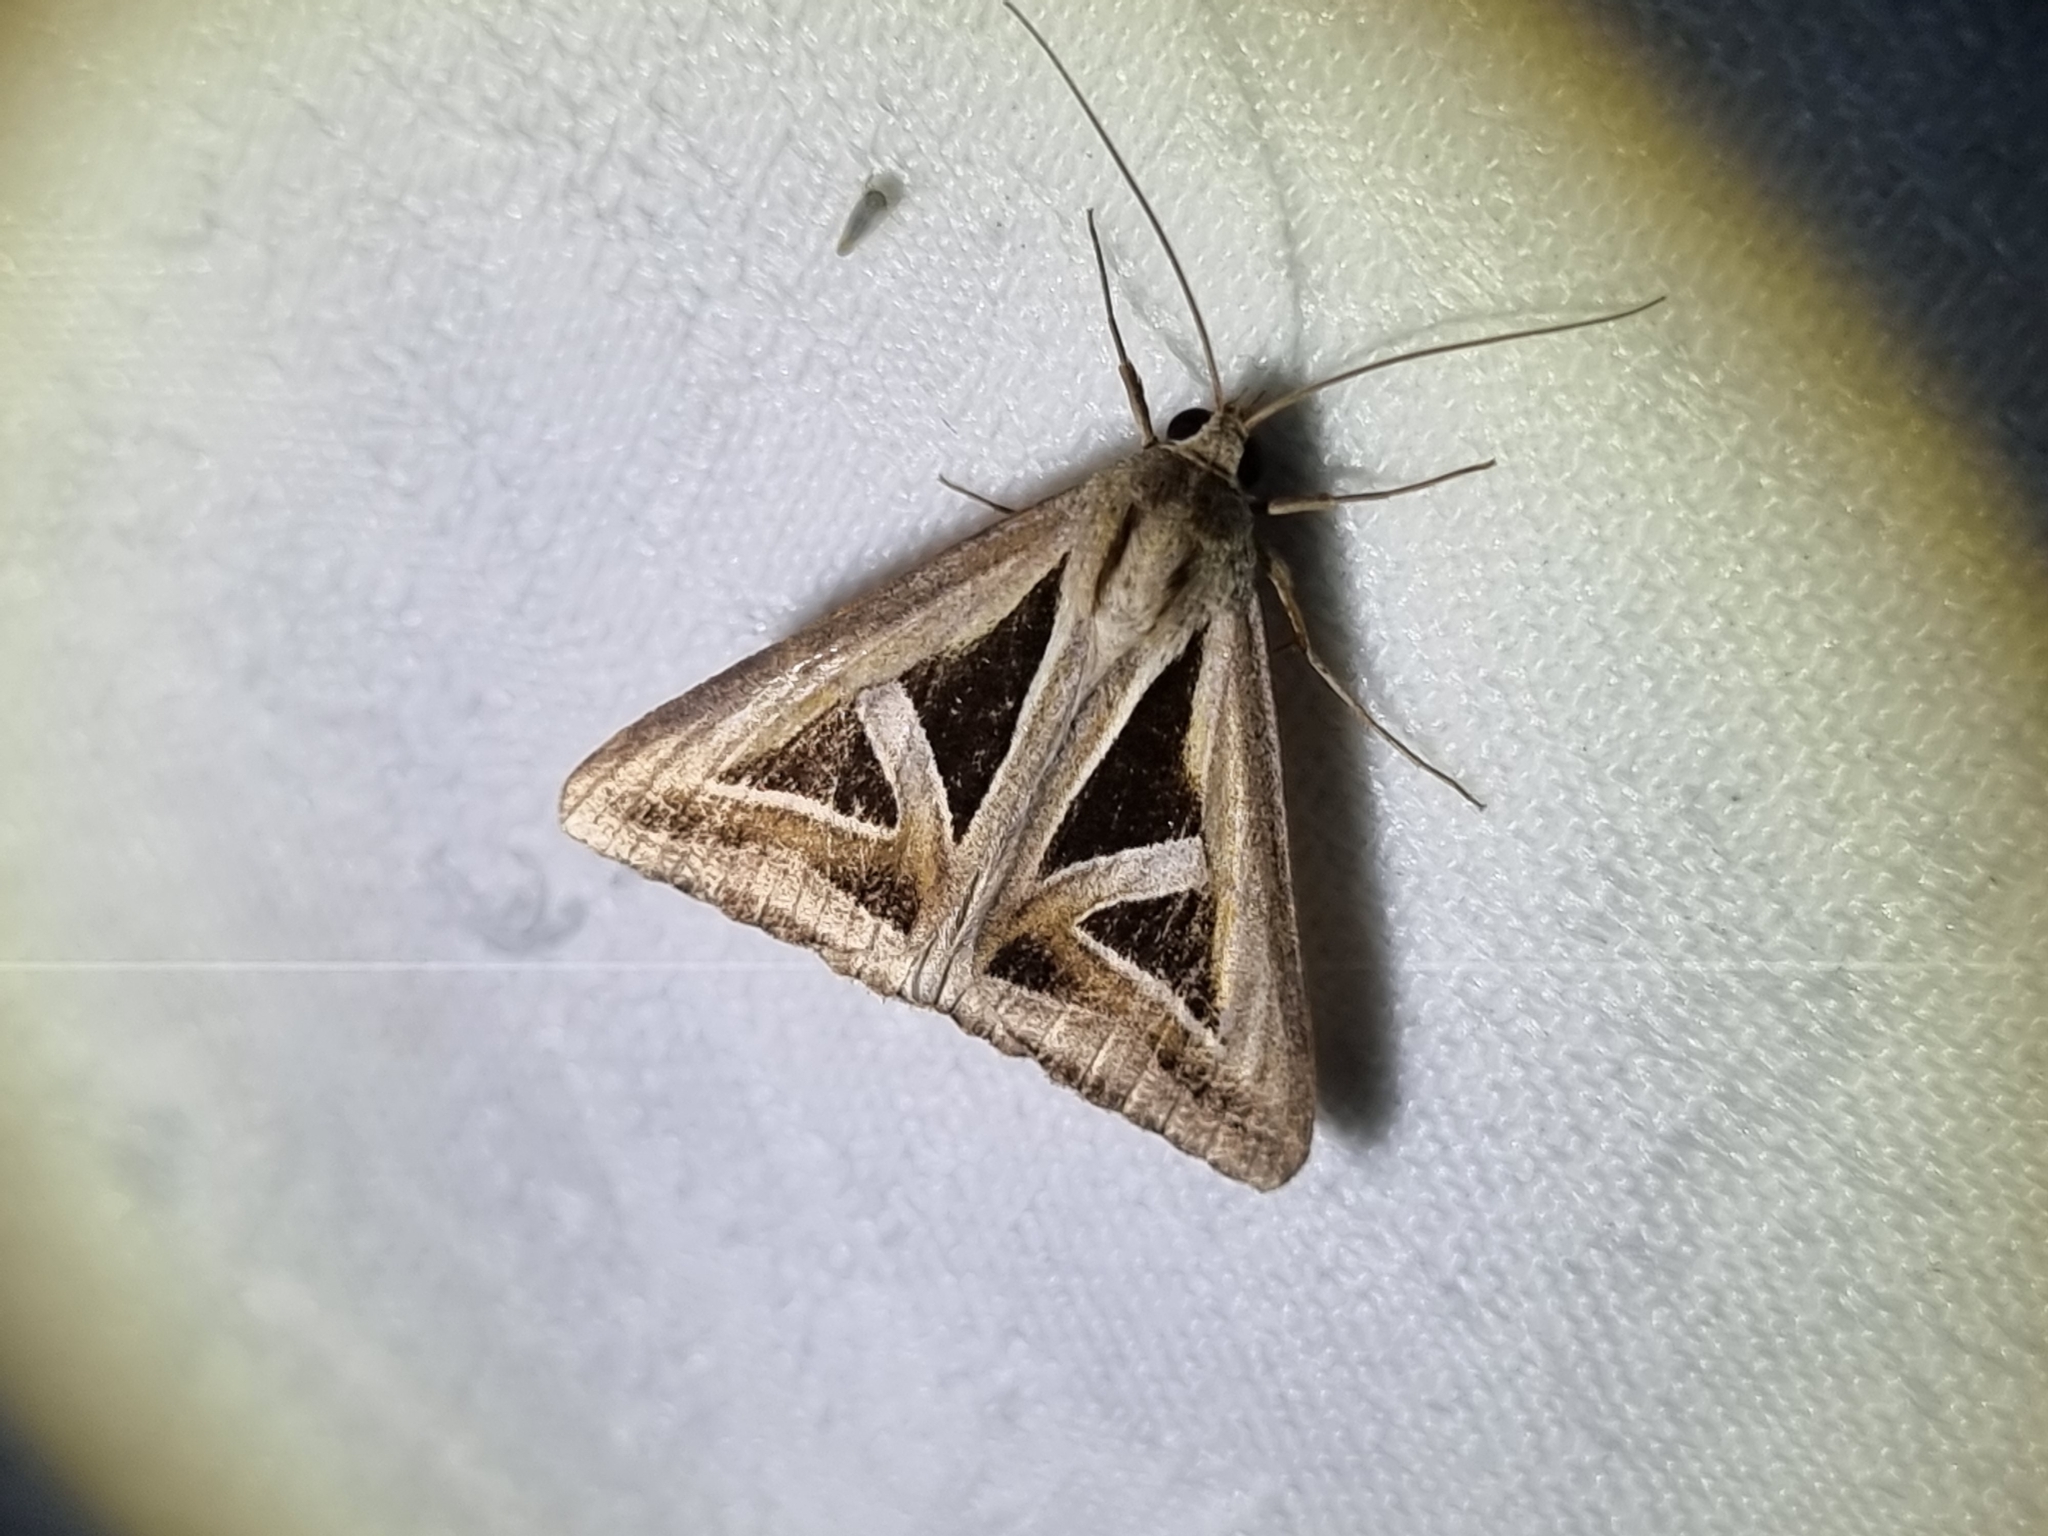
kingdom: Animalia
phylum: Arthropoda
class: Insecta
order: Lepidoptera
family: Erebidae
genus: Trigonodes
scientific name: Trigonodes hyppasia
